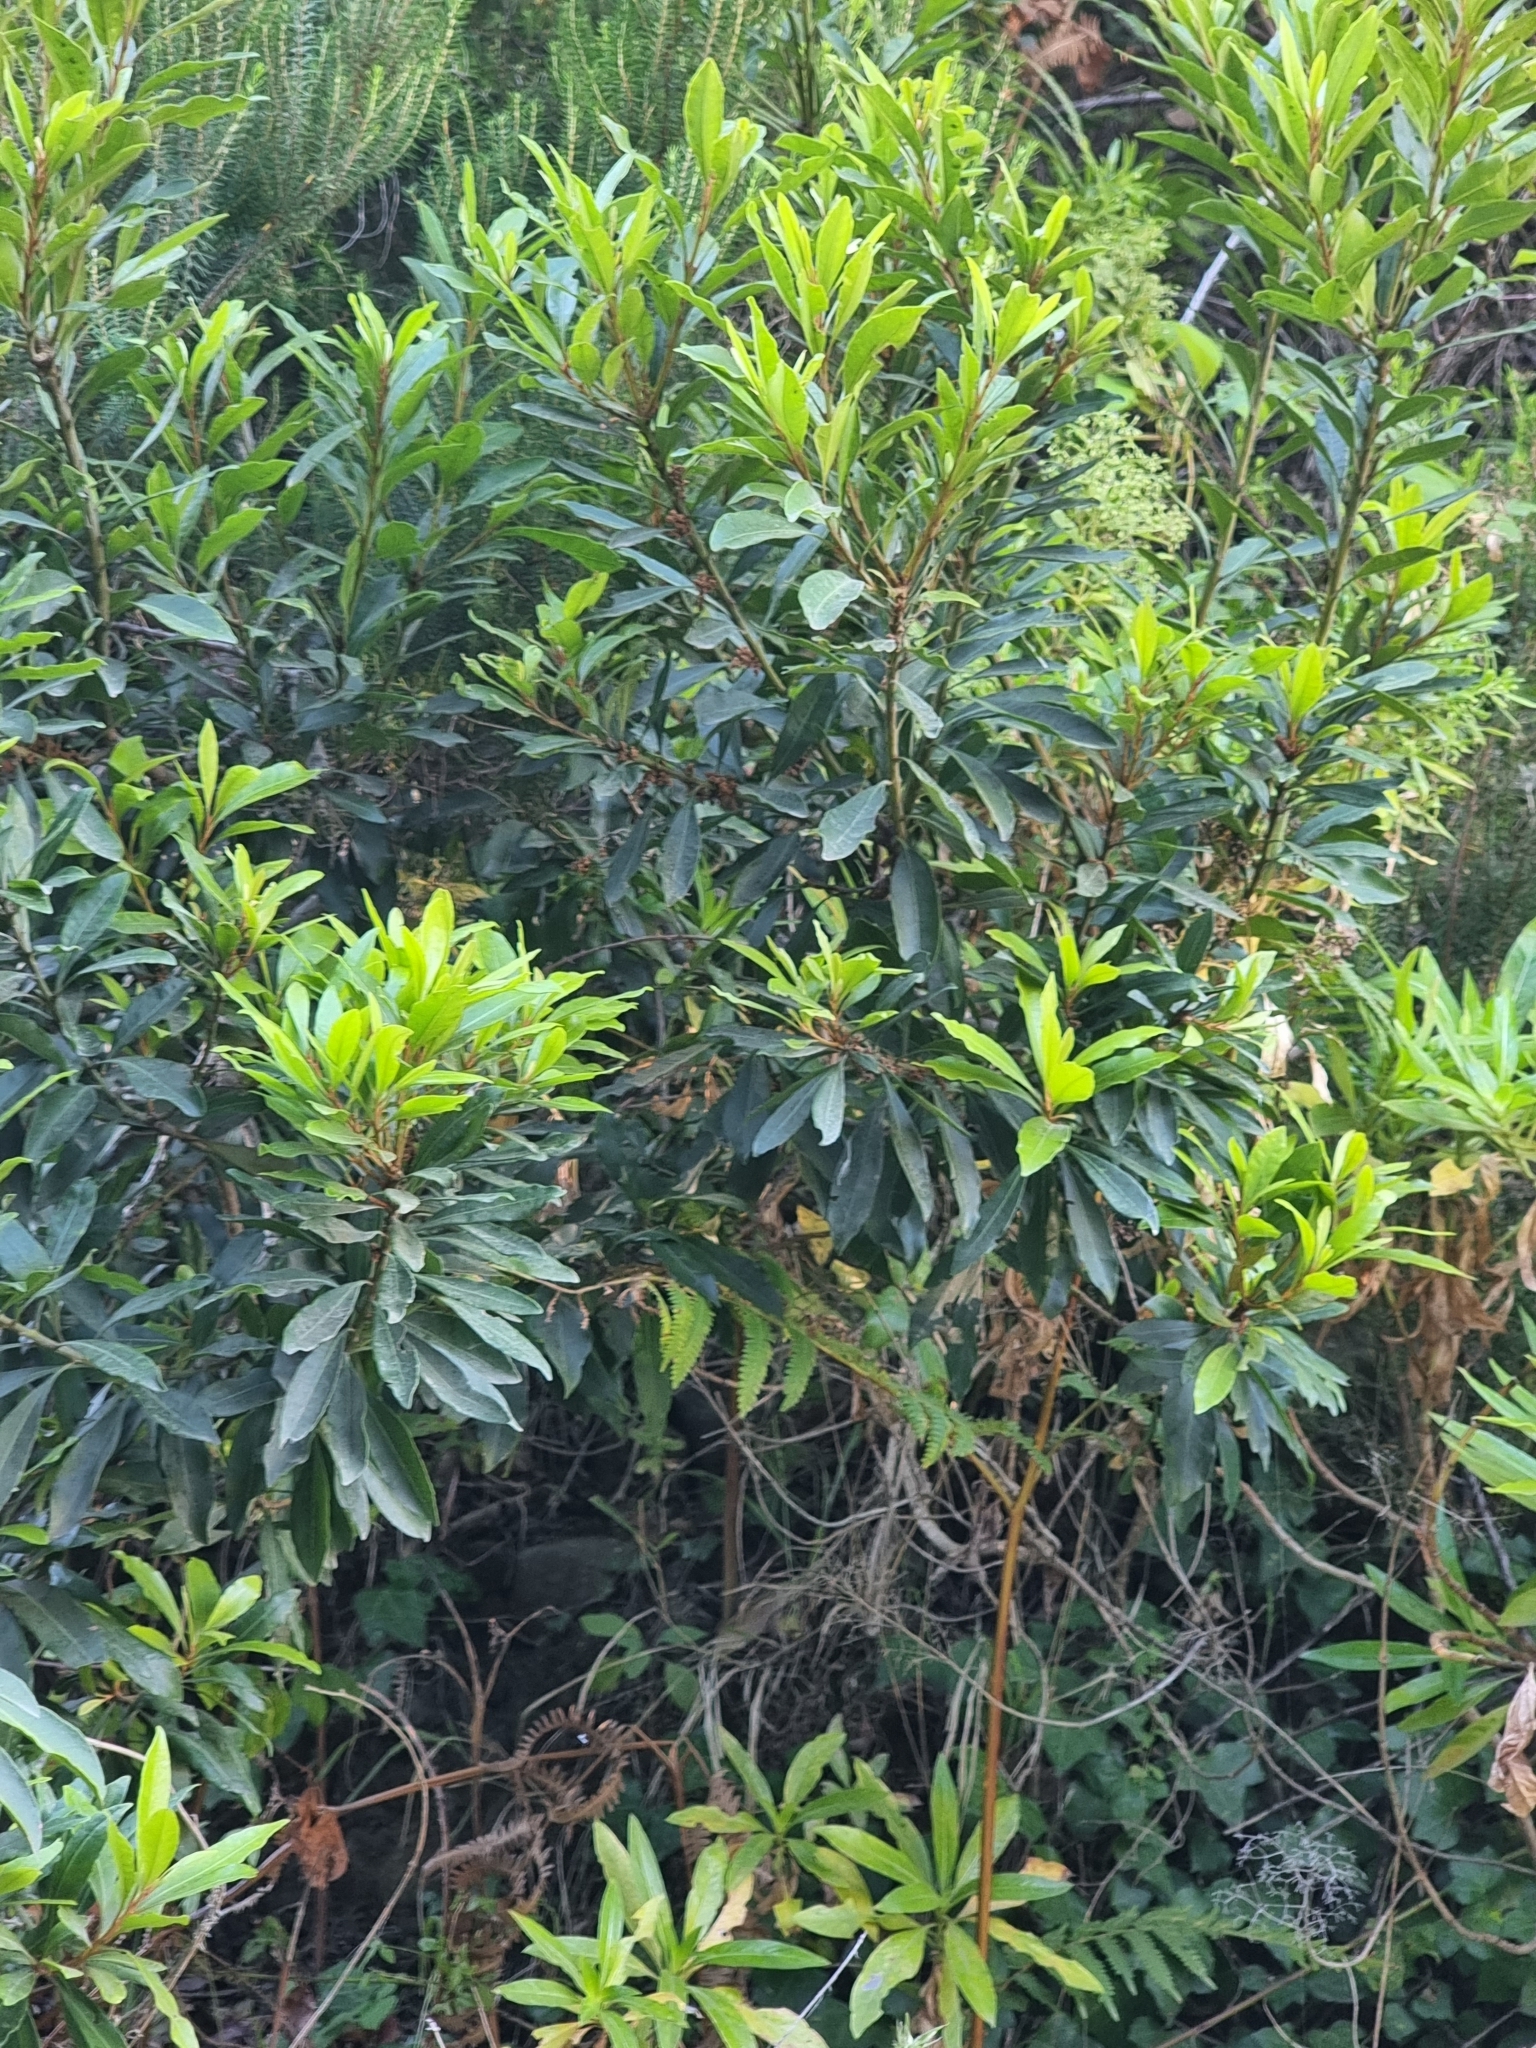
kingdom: Plantae
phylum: Tracheophyta
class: Magnoliopsida
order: Fagales
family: Myricaceae
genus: Morella
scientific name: Morella faya
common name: Firetree
